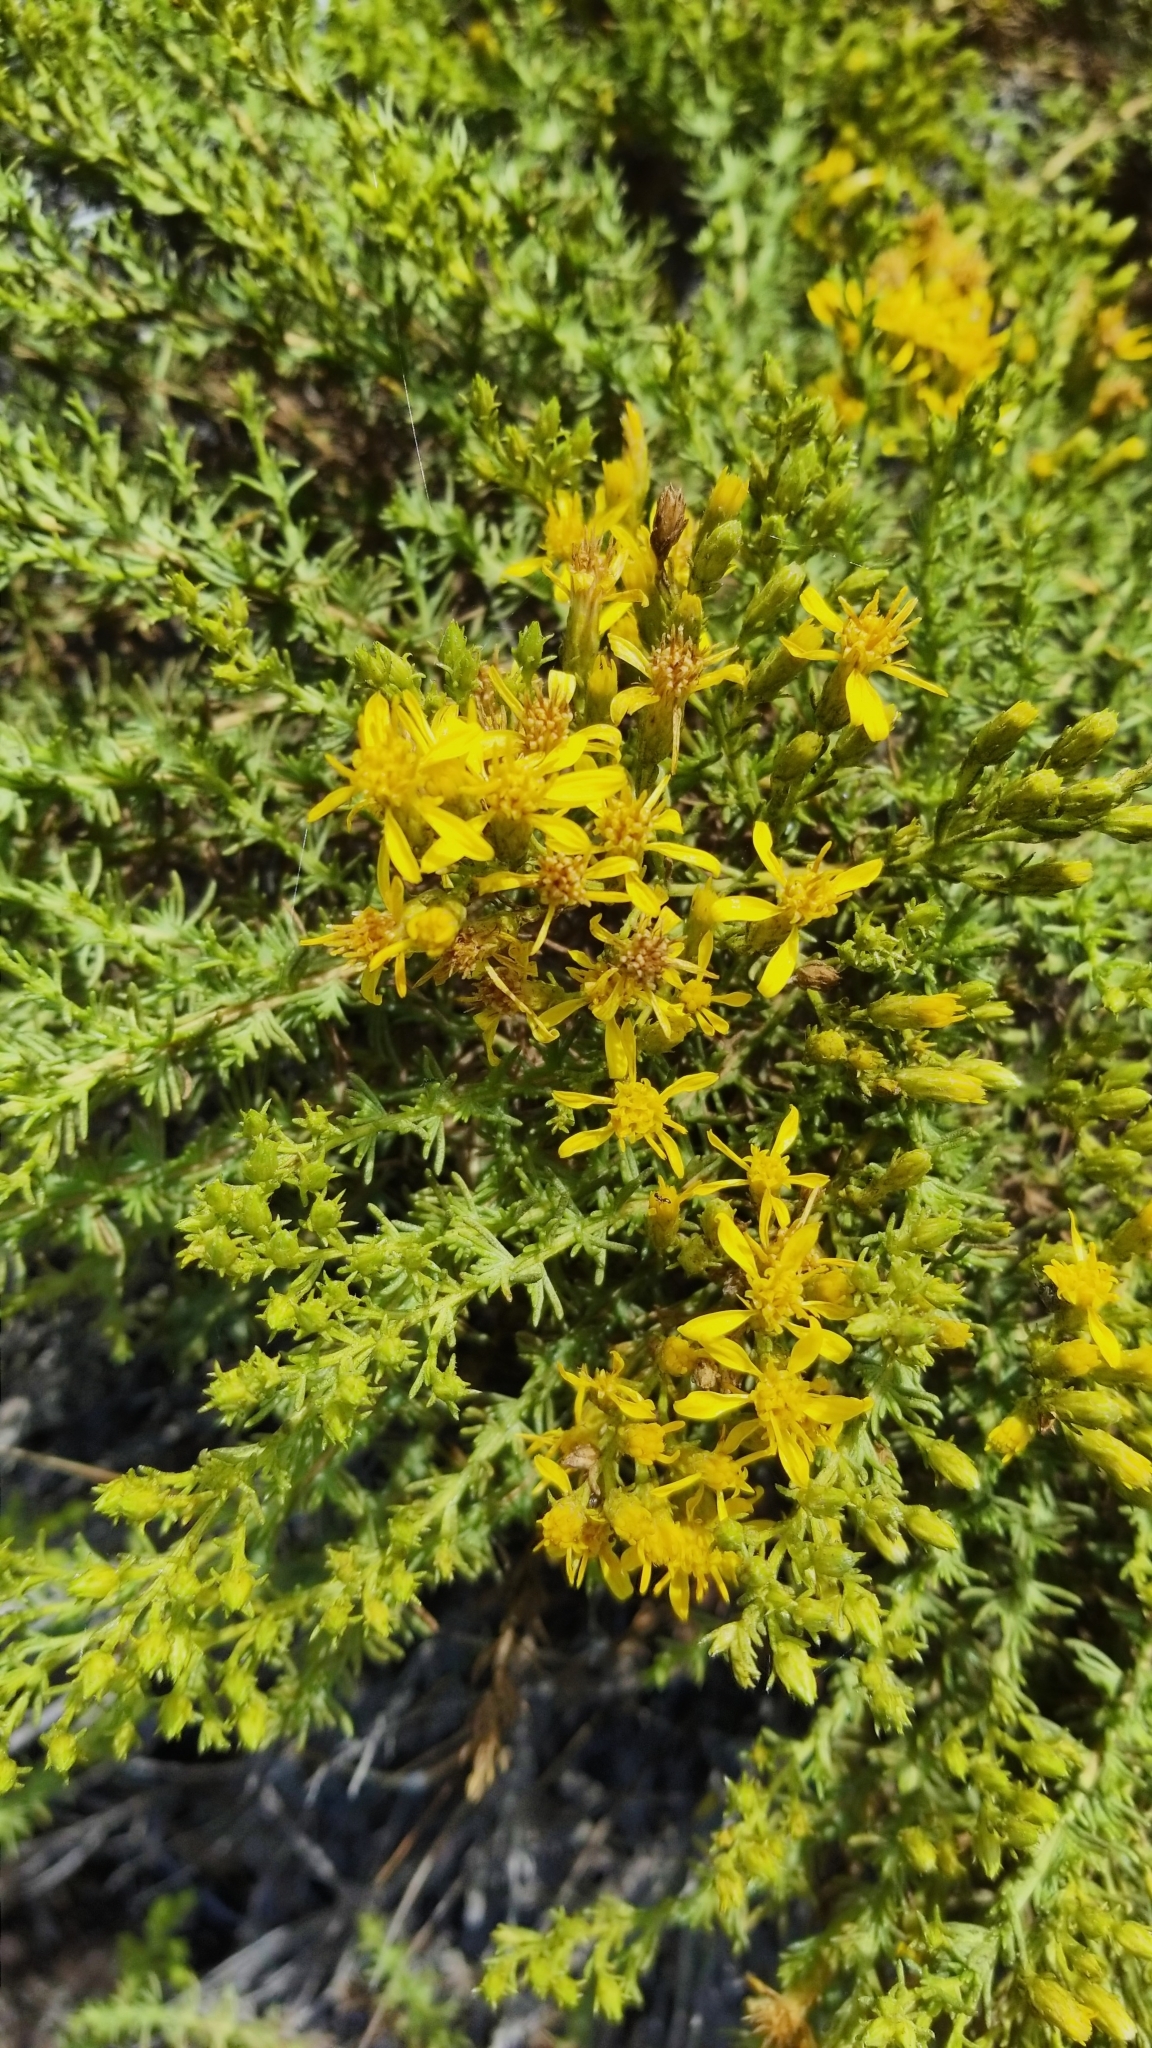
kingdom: Plantae
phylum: Tracheophyta
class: Magnoliopsida
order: Asterales
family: Asteraceae
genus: Ericameria
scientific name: Ericameria ericoides
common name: California goldenbush
